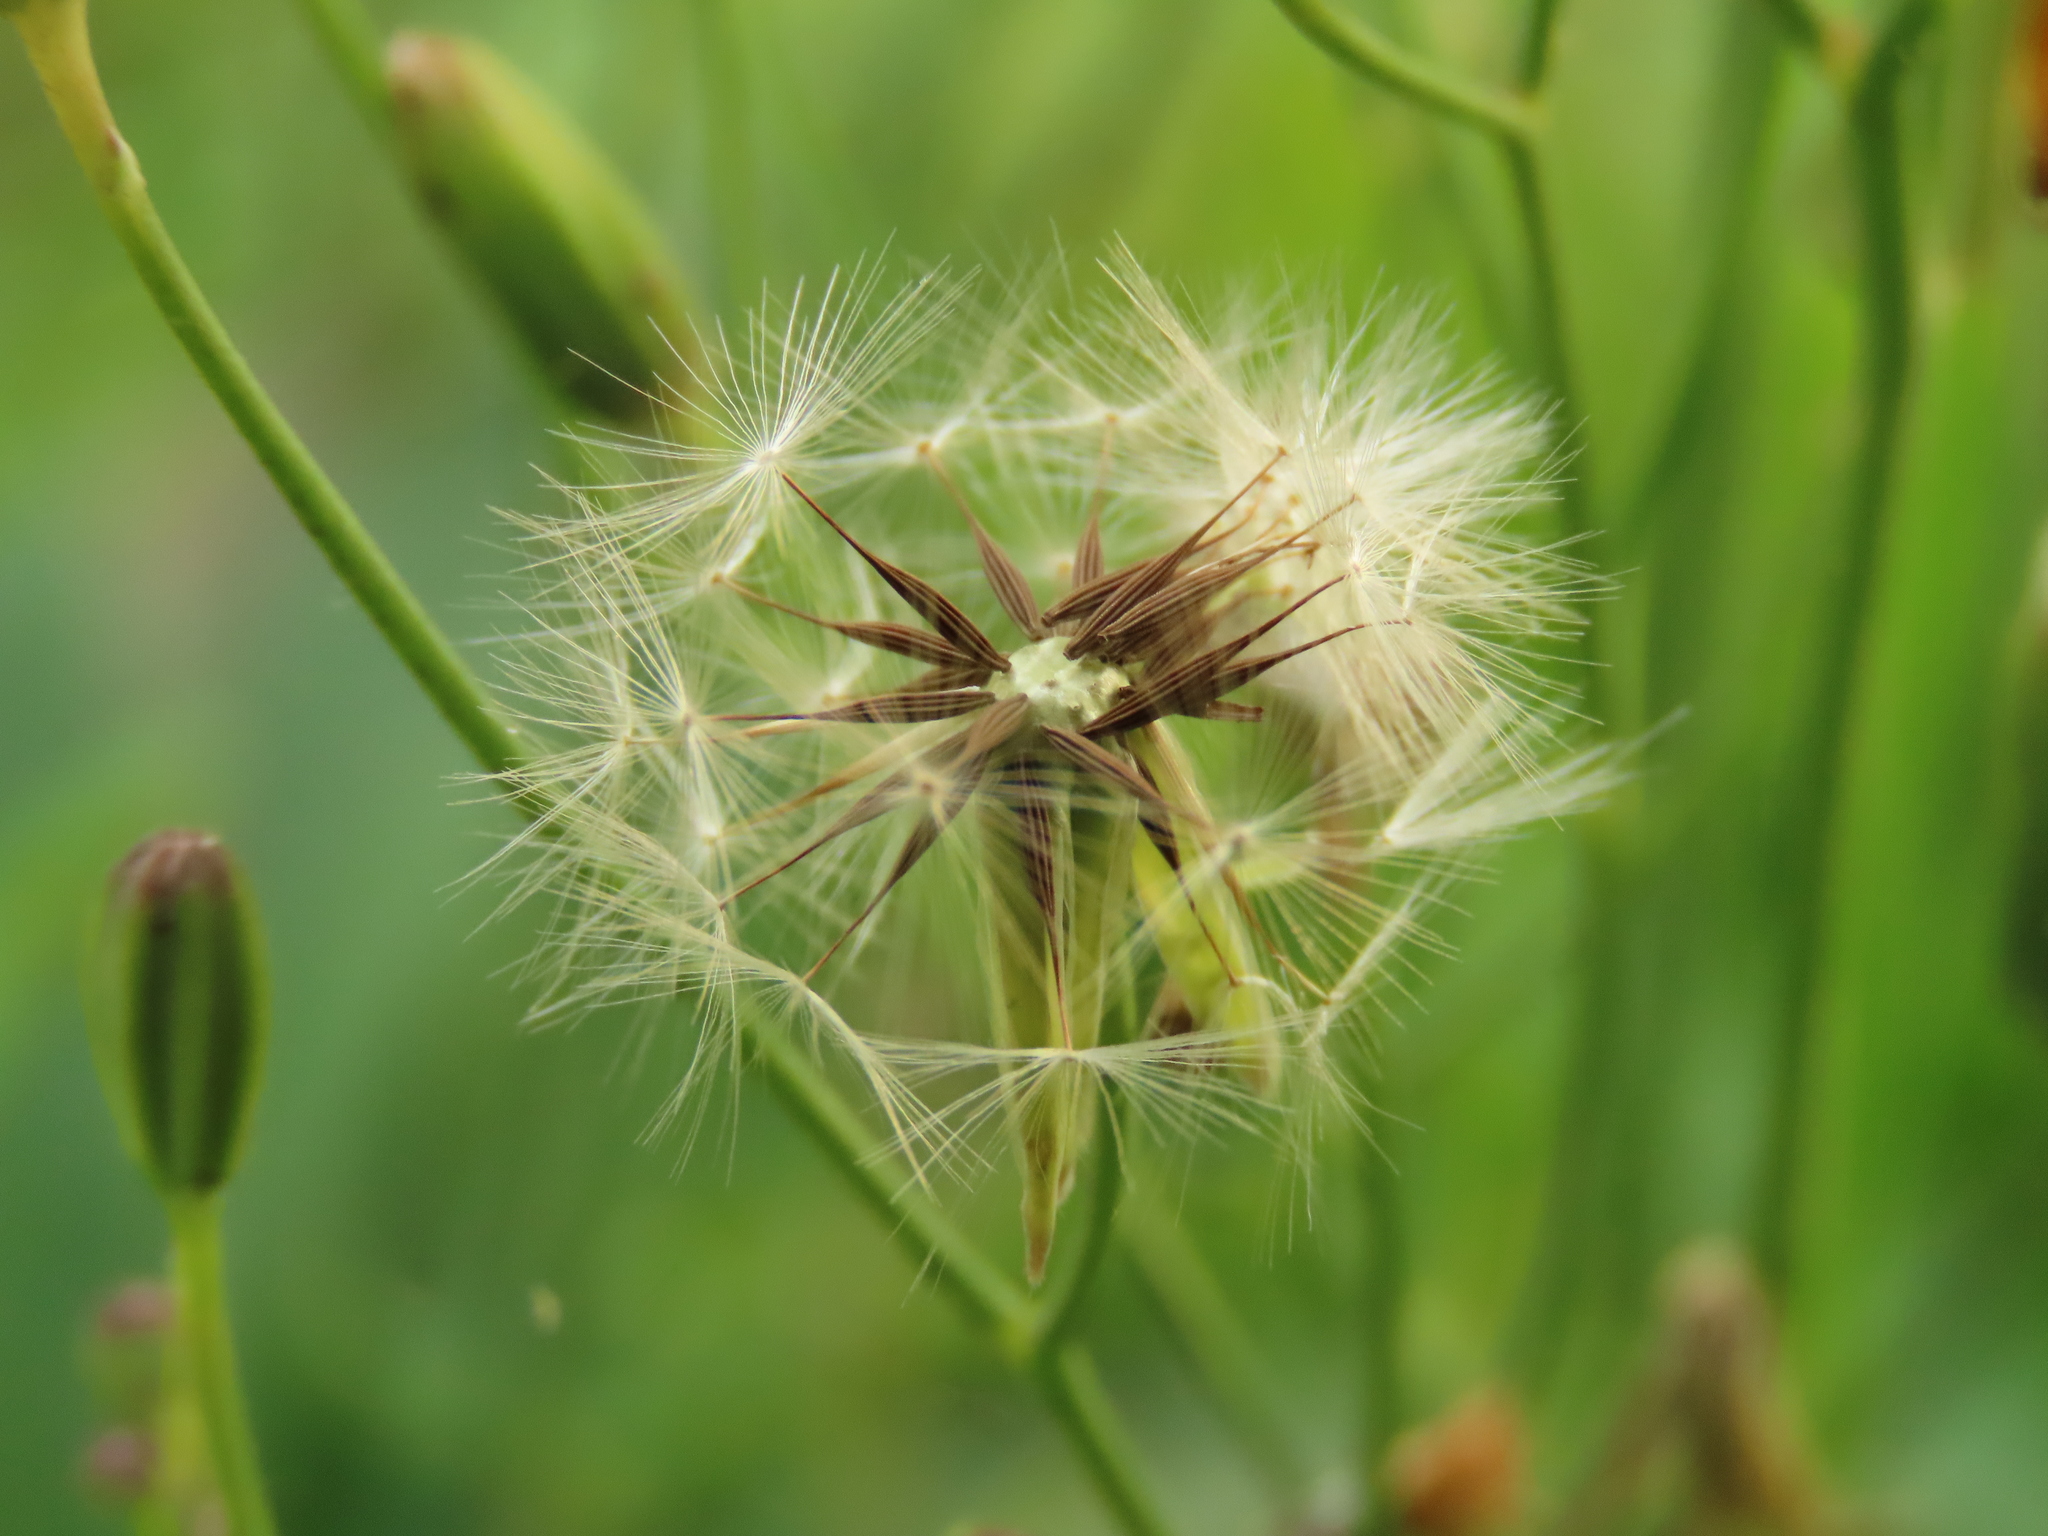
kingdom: Plantae
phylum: Tracheophyta
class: Magnoliopsida
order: Asterales
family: Asteraceae
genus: Ixeris
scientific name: Ixeris chinensis
